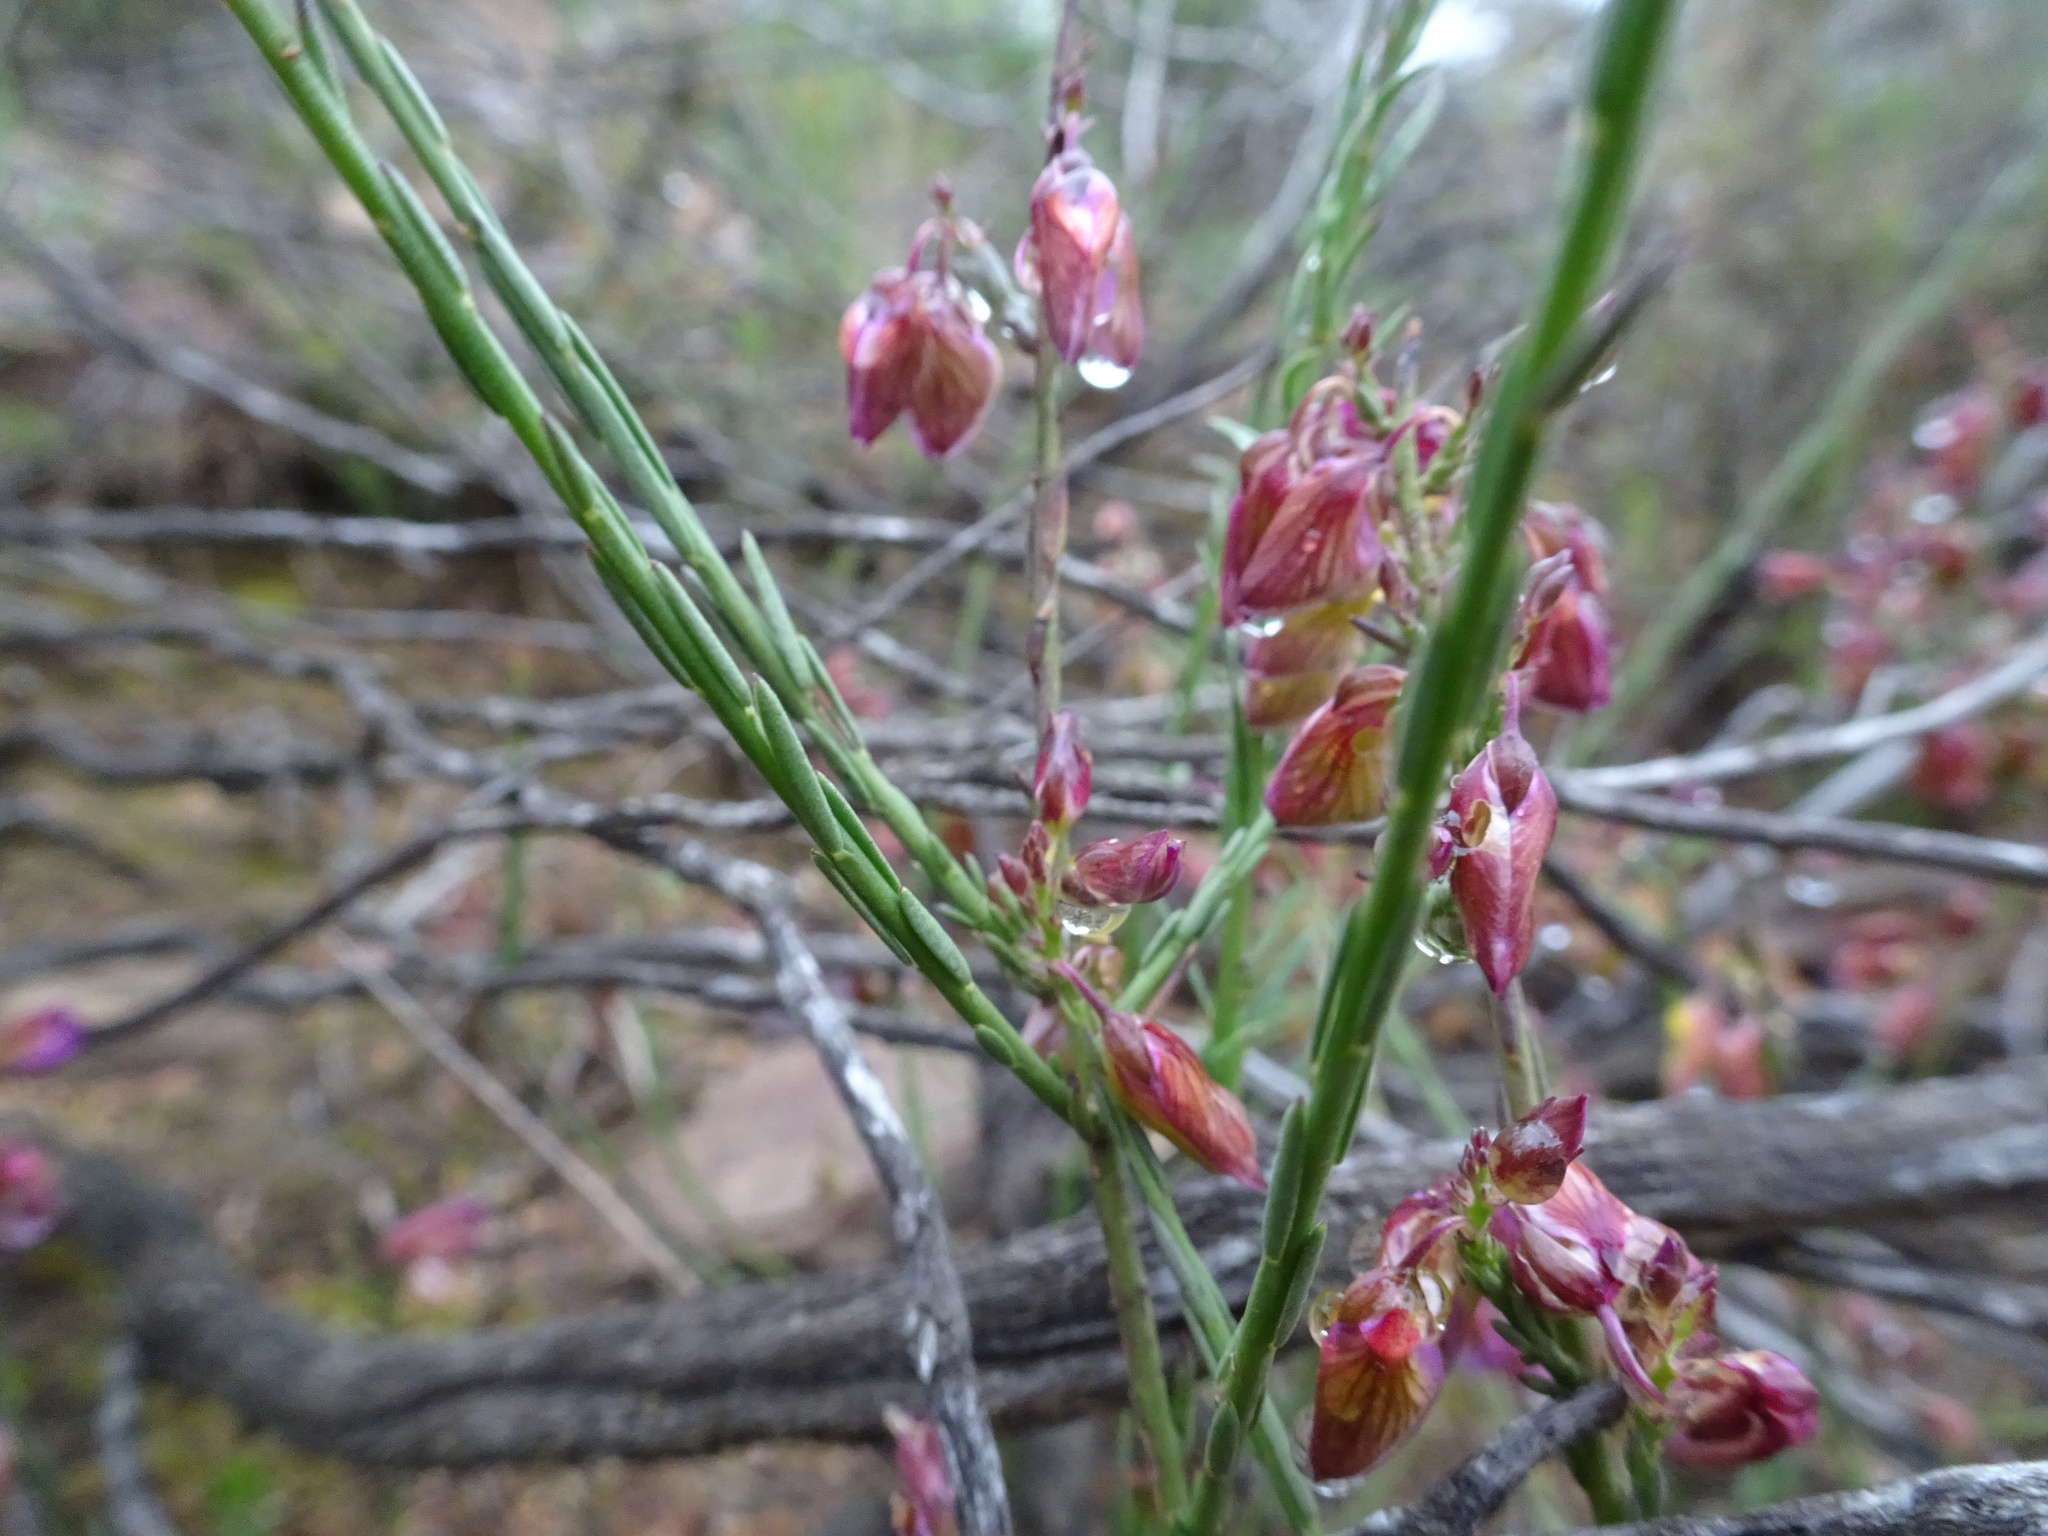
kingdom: Plantae
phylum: Tracheophyta
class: Magnoliopsida
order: Fabales
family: Polygalaceae
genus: Polygala
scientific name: Polygala microlopha
